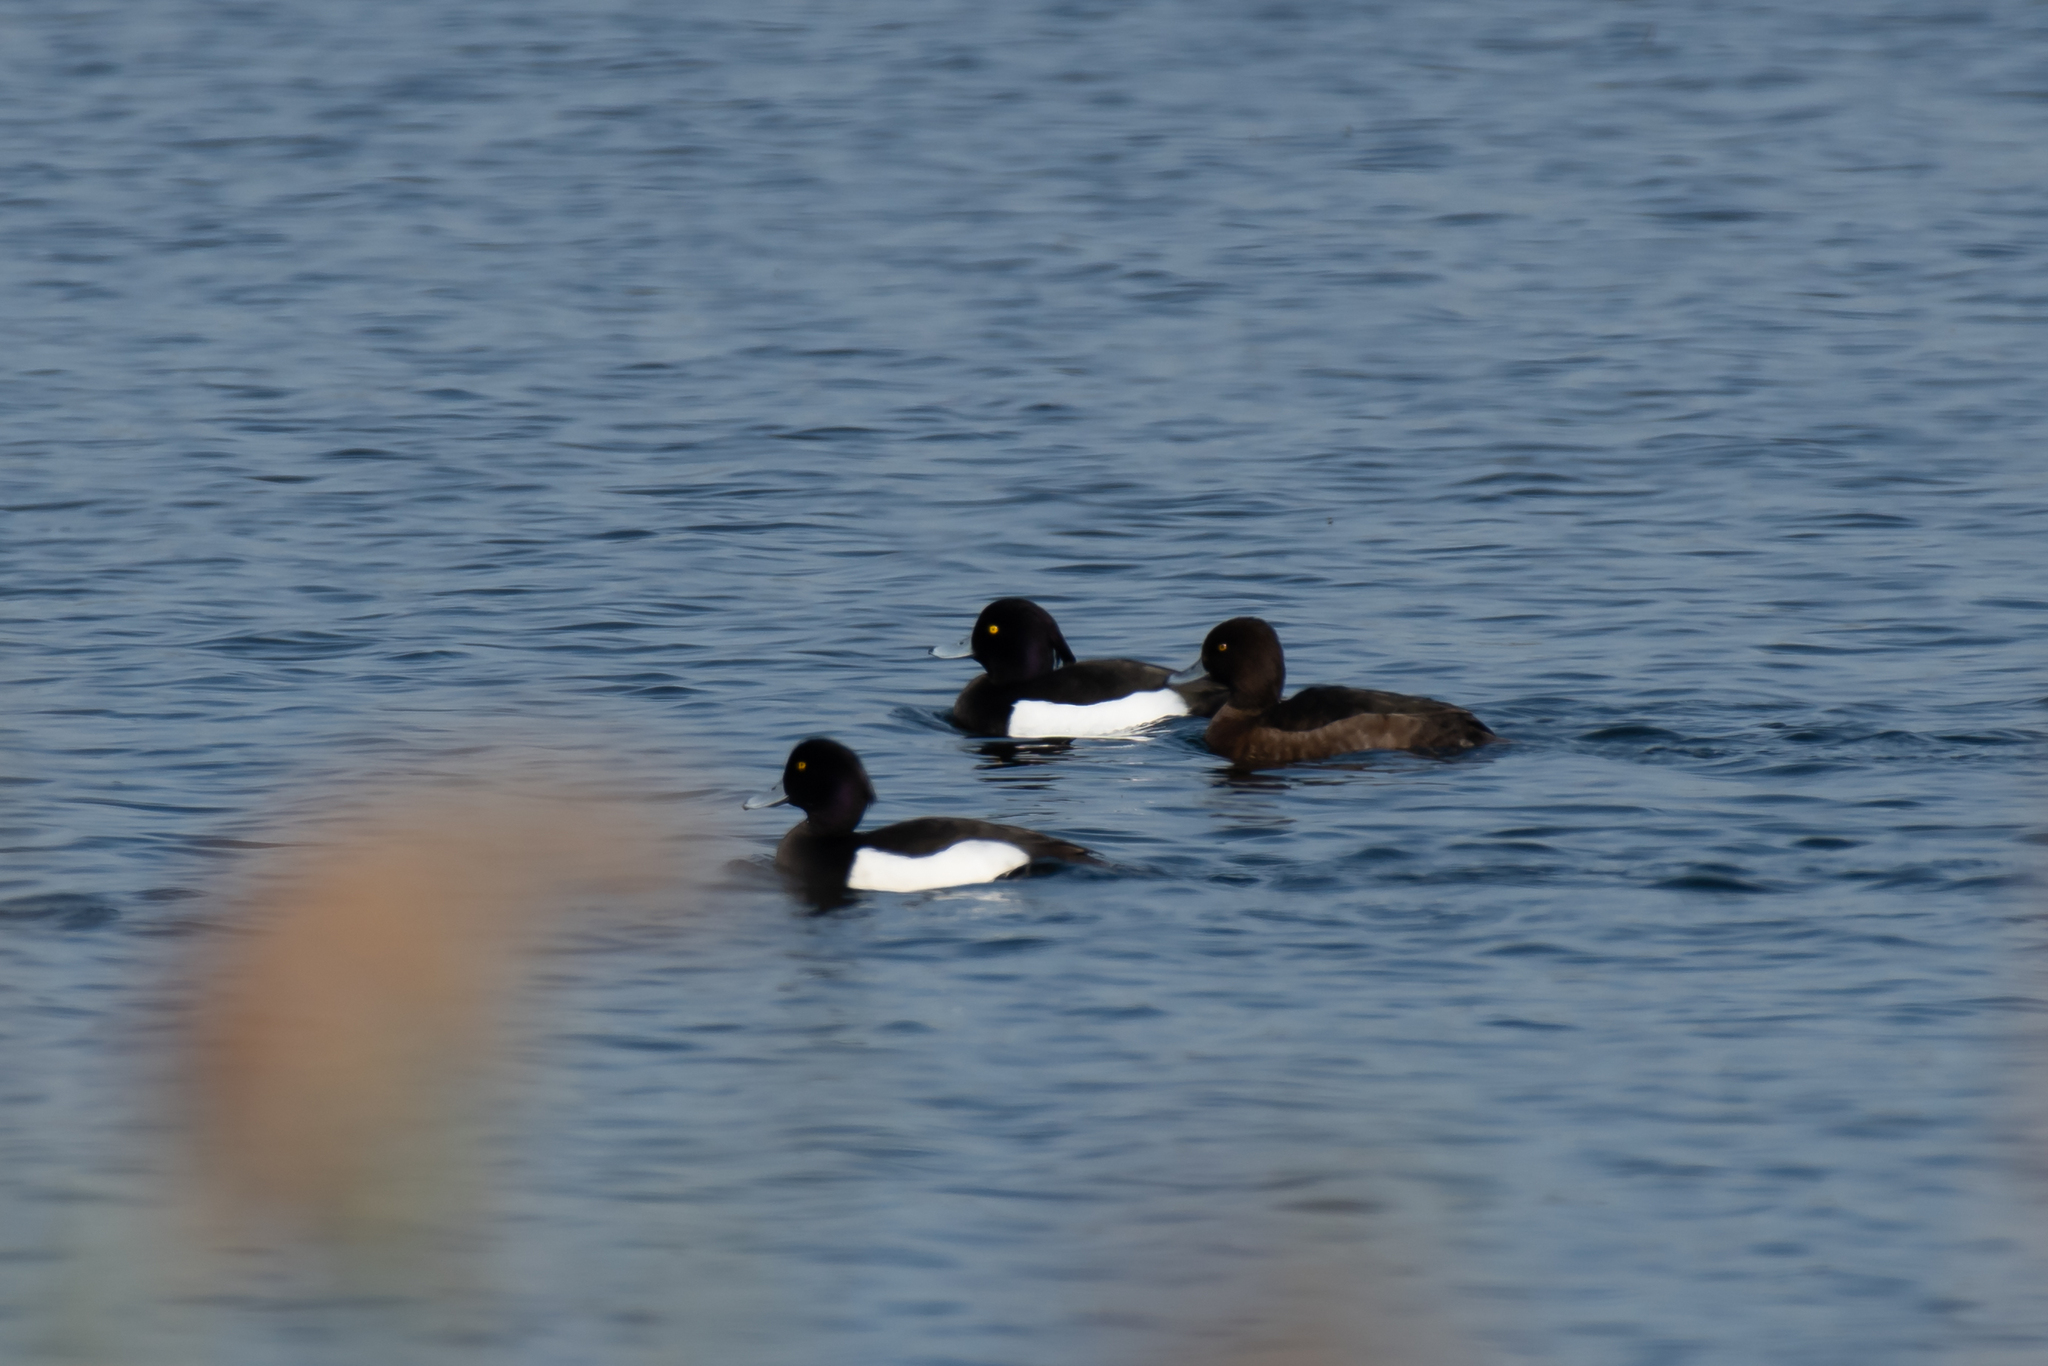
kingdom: Animalia
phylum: Chordata
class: Aves
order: Anseriformes
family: Anatidae
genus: Aythya
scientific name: Aythya fuligula
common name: Tufted duck
